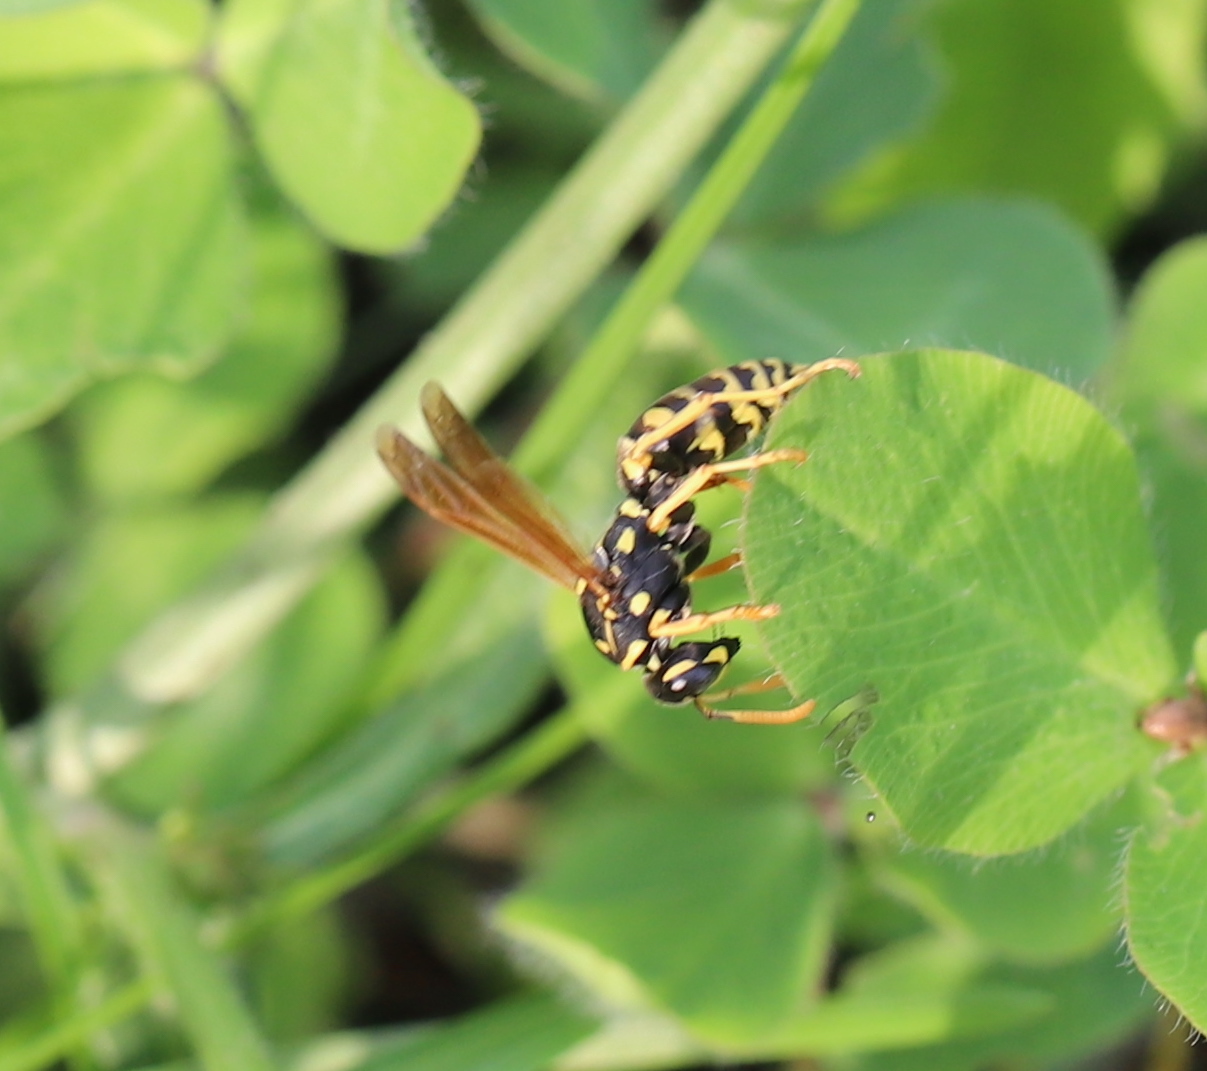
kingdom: Animalia
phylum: Arthropoda
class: Insecta
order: Hymenoptera
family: Eumenidae
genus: Polistes
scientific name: Polistes dominula
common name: Paper wasp
